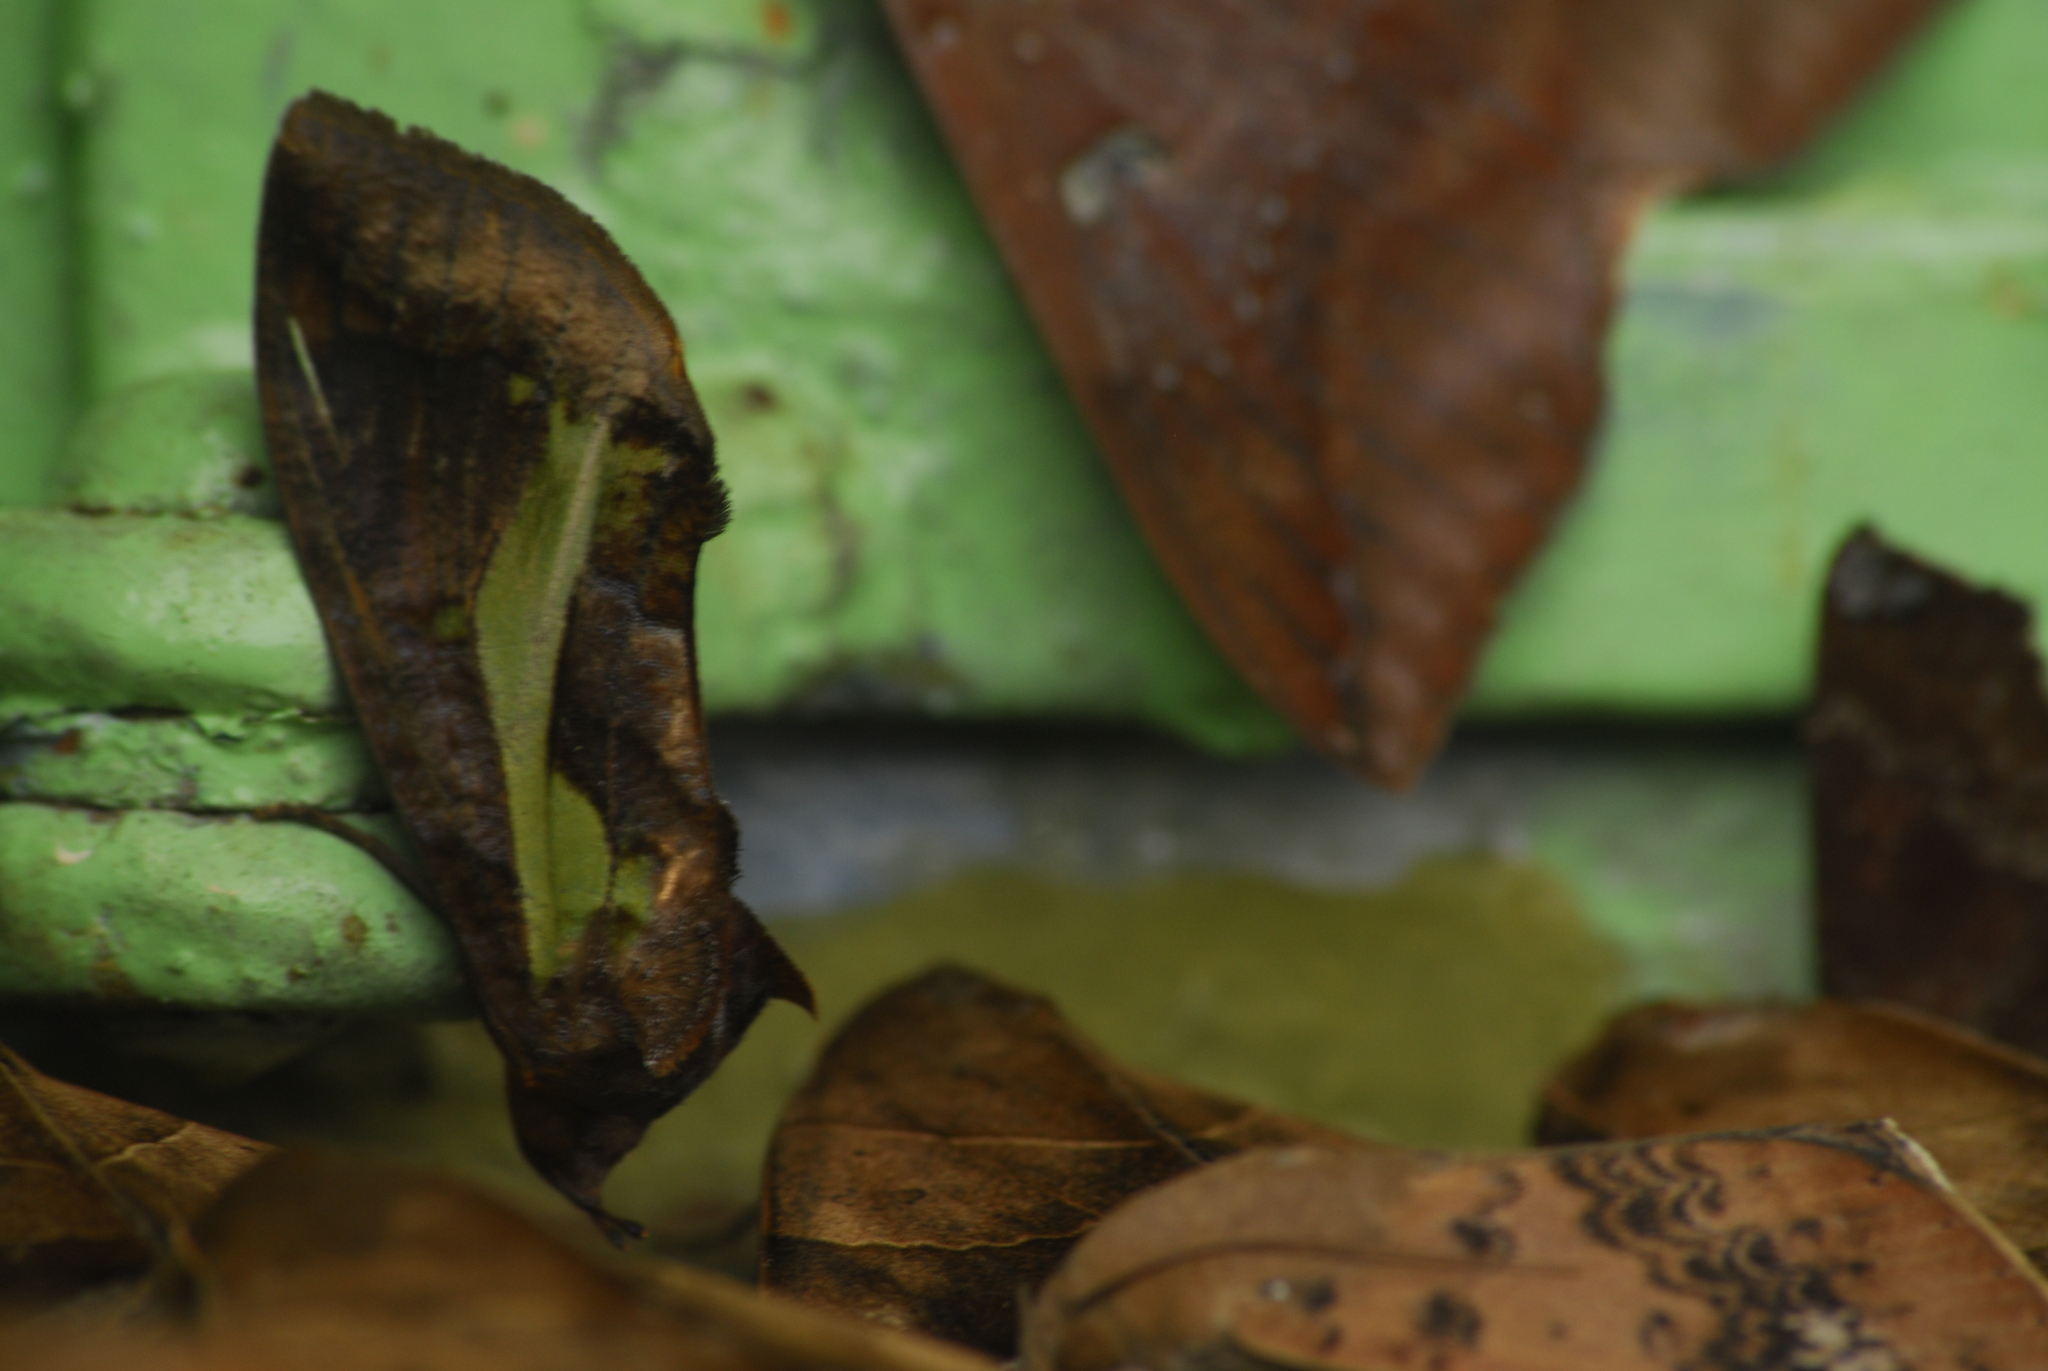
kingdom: Animalia
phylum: Arthropoda
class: Insecta
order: Lepidoptera
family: Erebidae
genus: Eudocima
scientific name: Eudocima homaena
